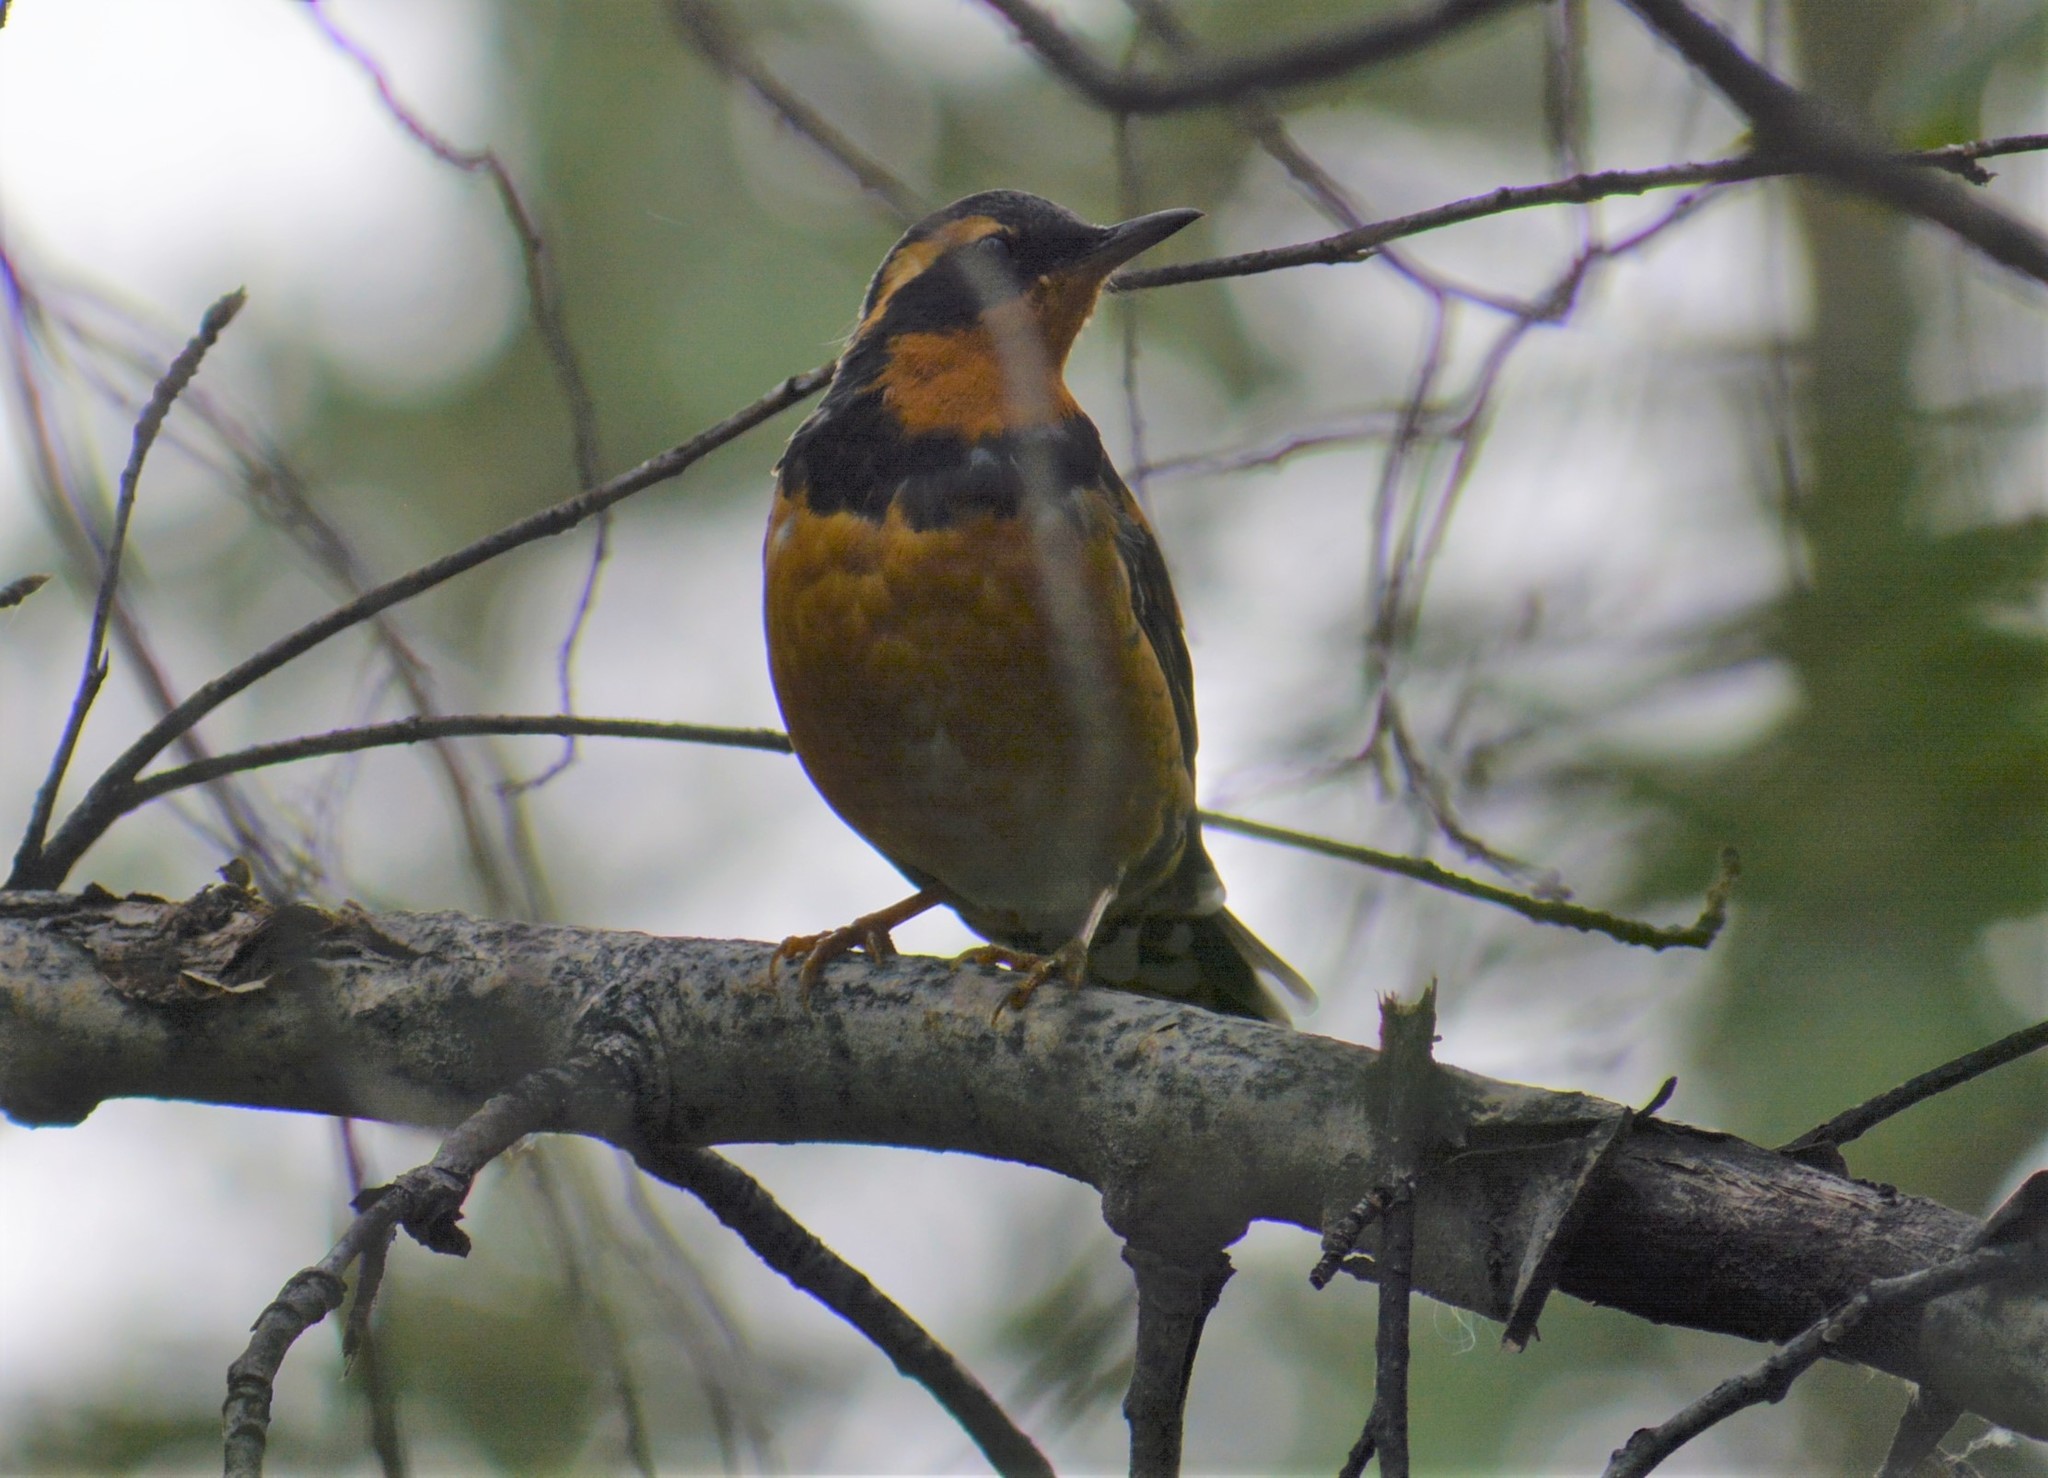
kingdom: Animalia
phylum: Chordata
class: Aves
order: Passeriformes
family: Turdidae
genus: Ixoreus
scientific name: Ixoreus naevius
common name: Varied thrush
